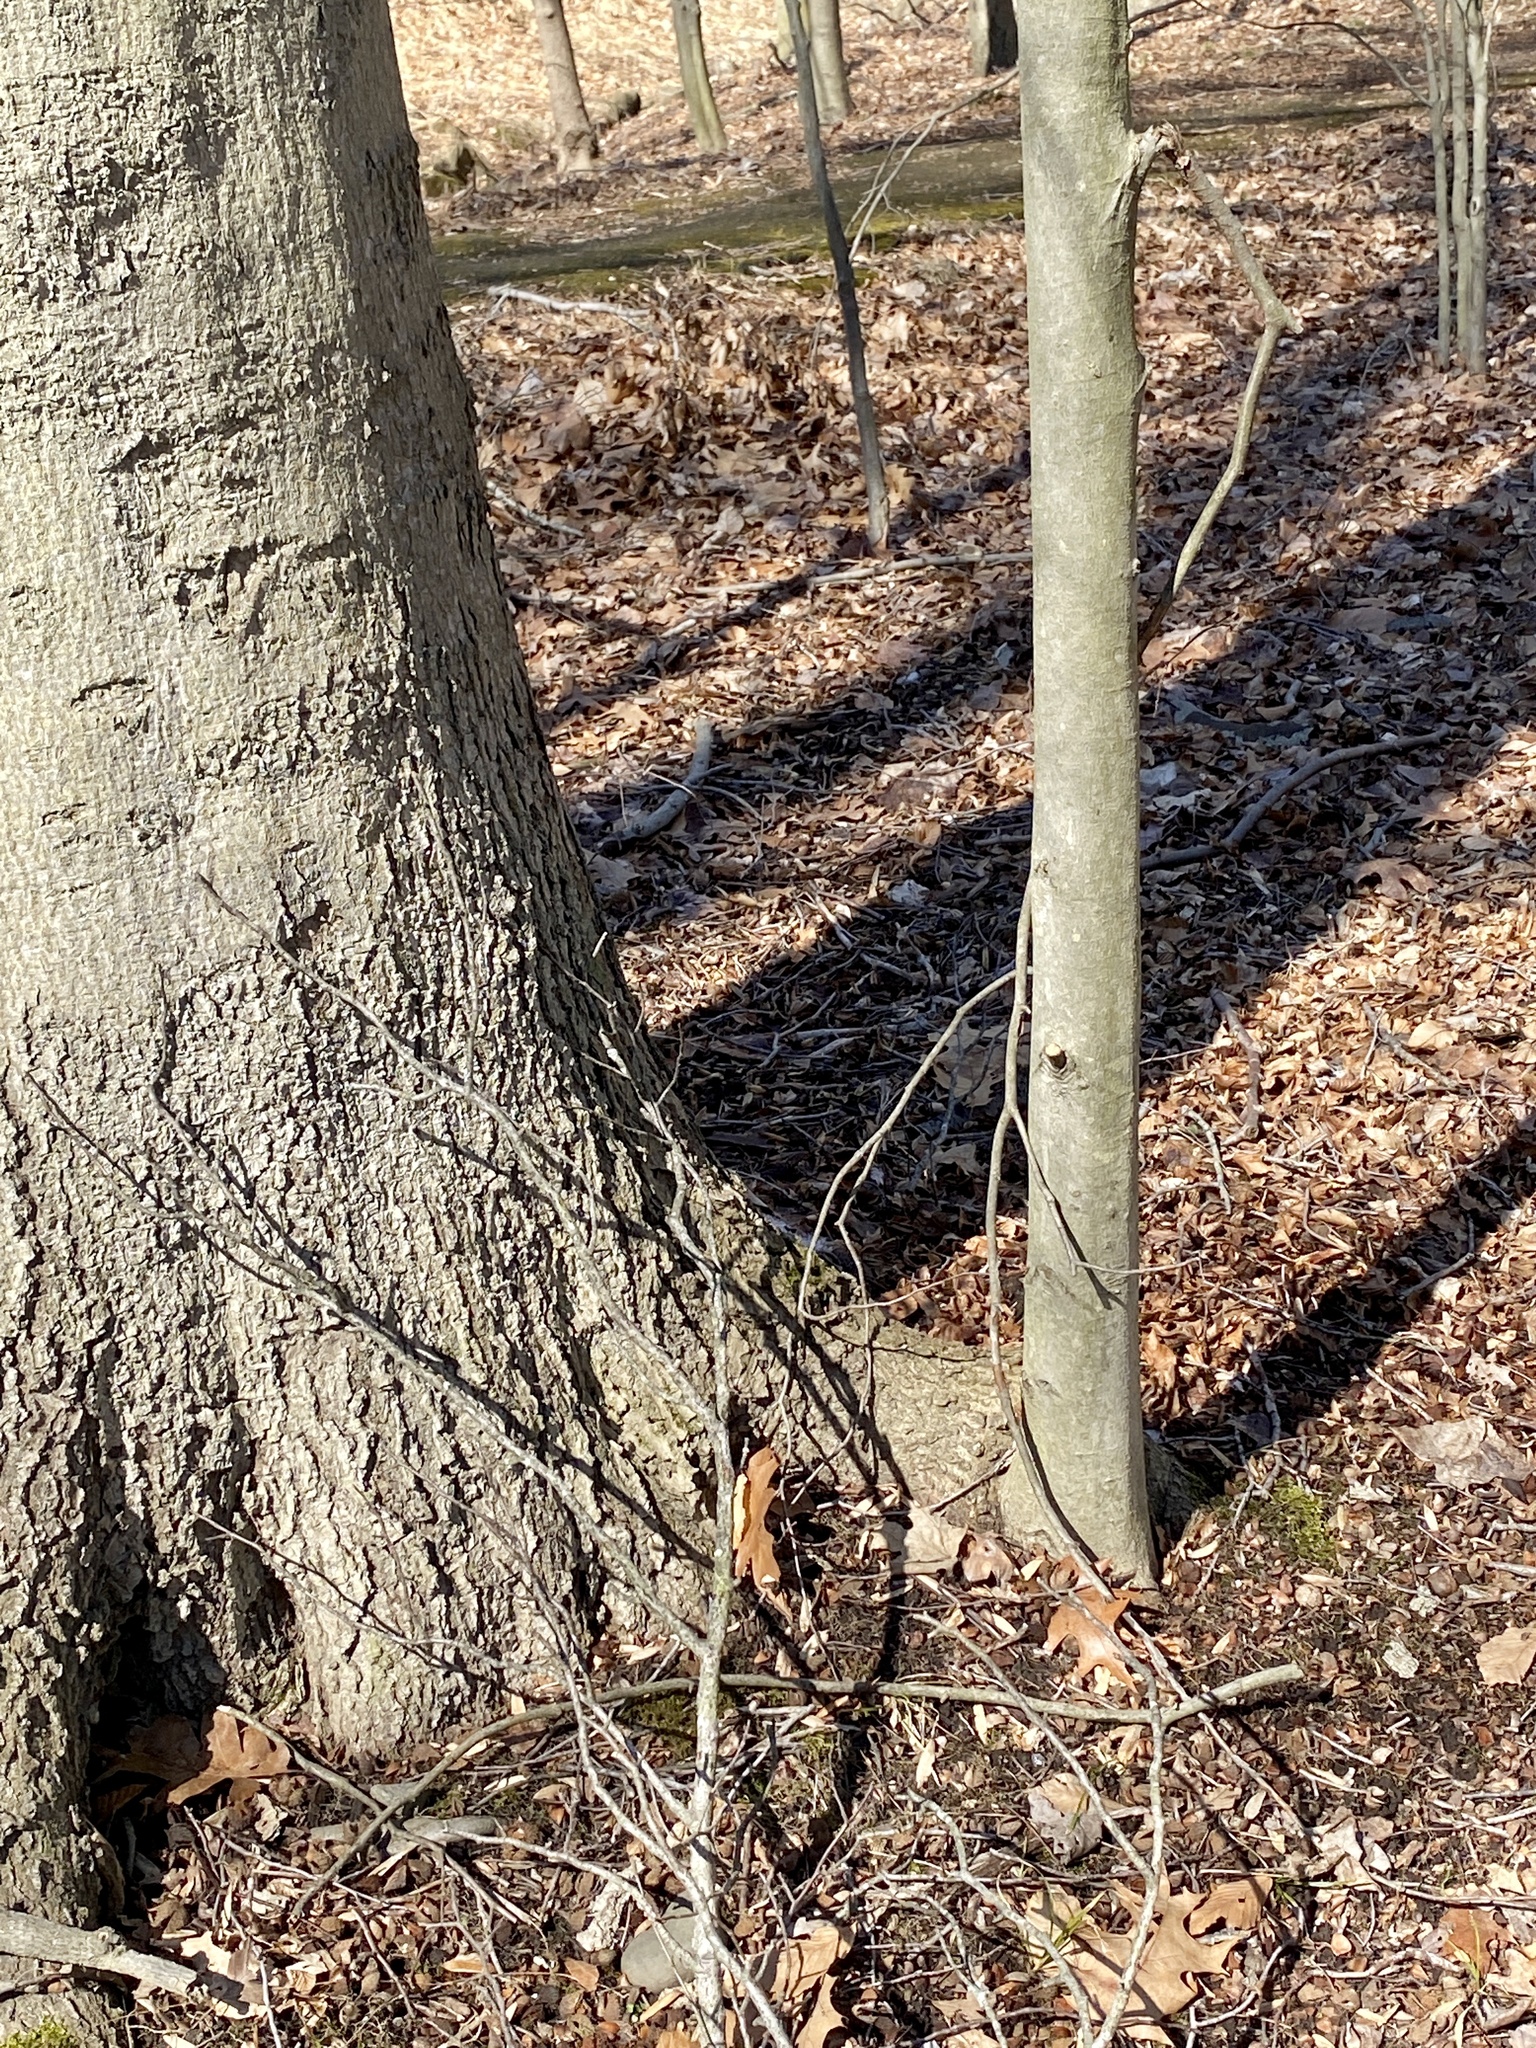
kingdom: Plantae
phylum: Tracheophyta
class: Magnoliopsida
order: Fagales
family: Fagaceae
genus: Fagus
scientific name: Fagus grandifolia
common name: American beech
